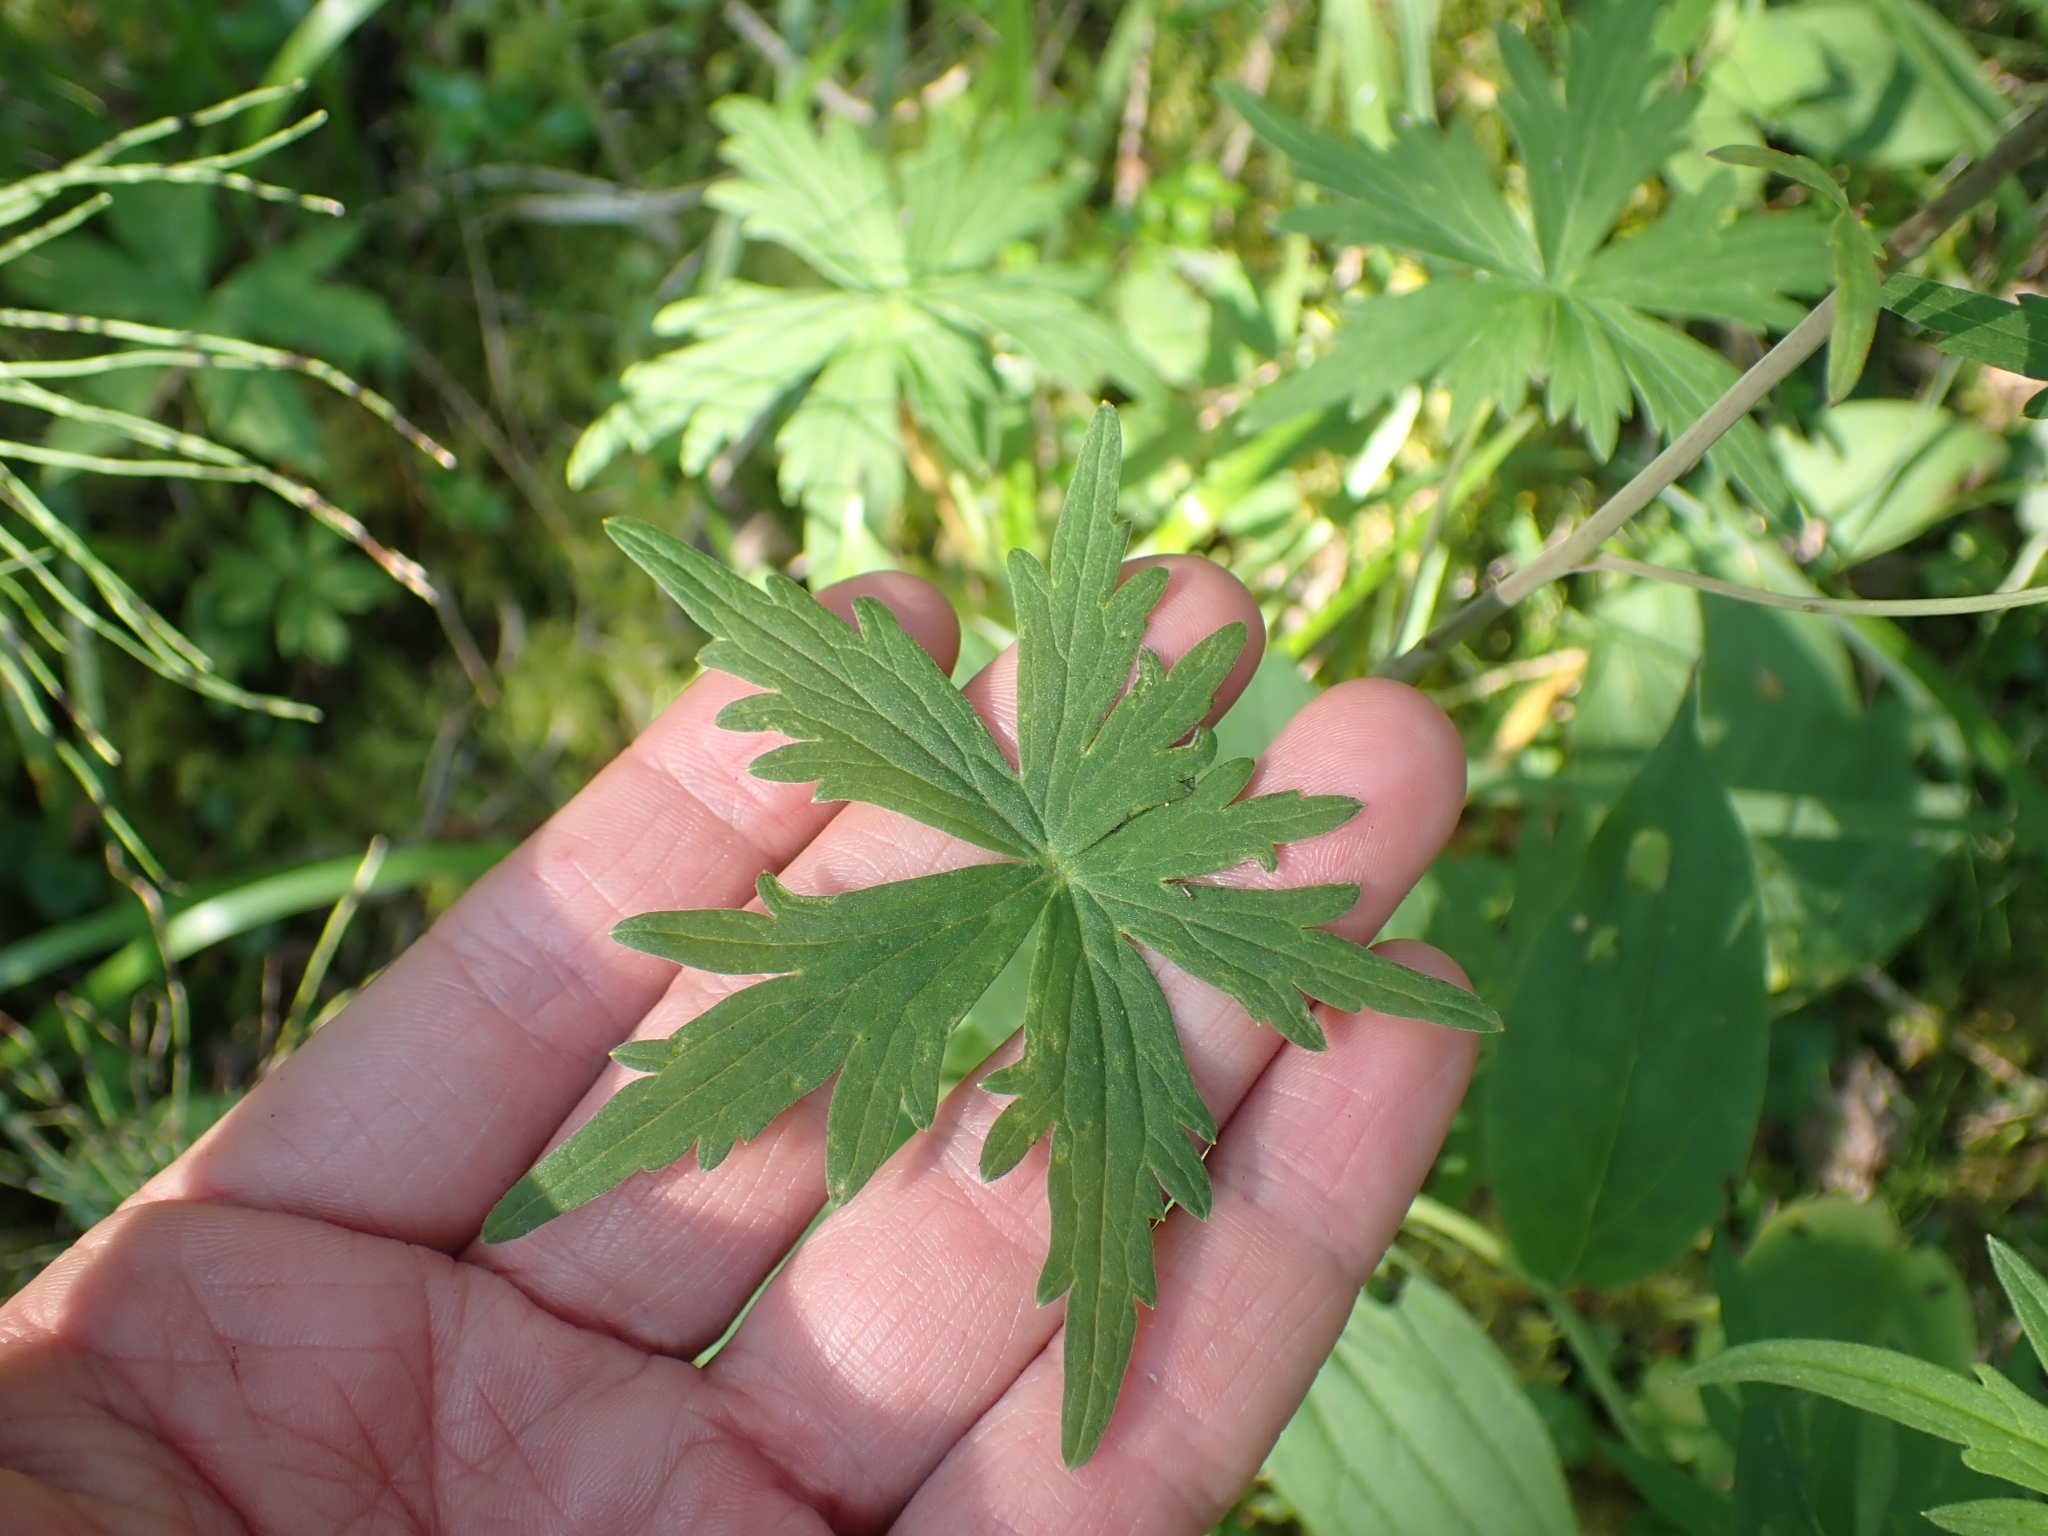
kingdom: Plantae
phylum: Tracheophyta
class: Magnoliopsida
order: Ranunculales
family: Ranunculaceae
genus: Delphinium
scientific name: Delphinium glaucum
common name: Brown's larkspur
